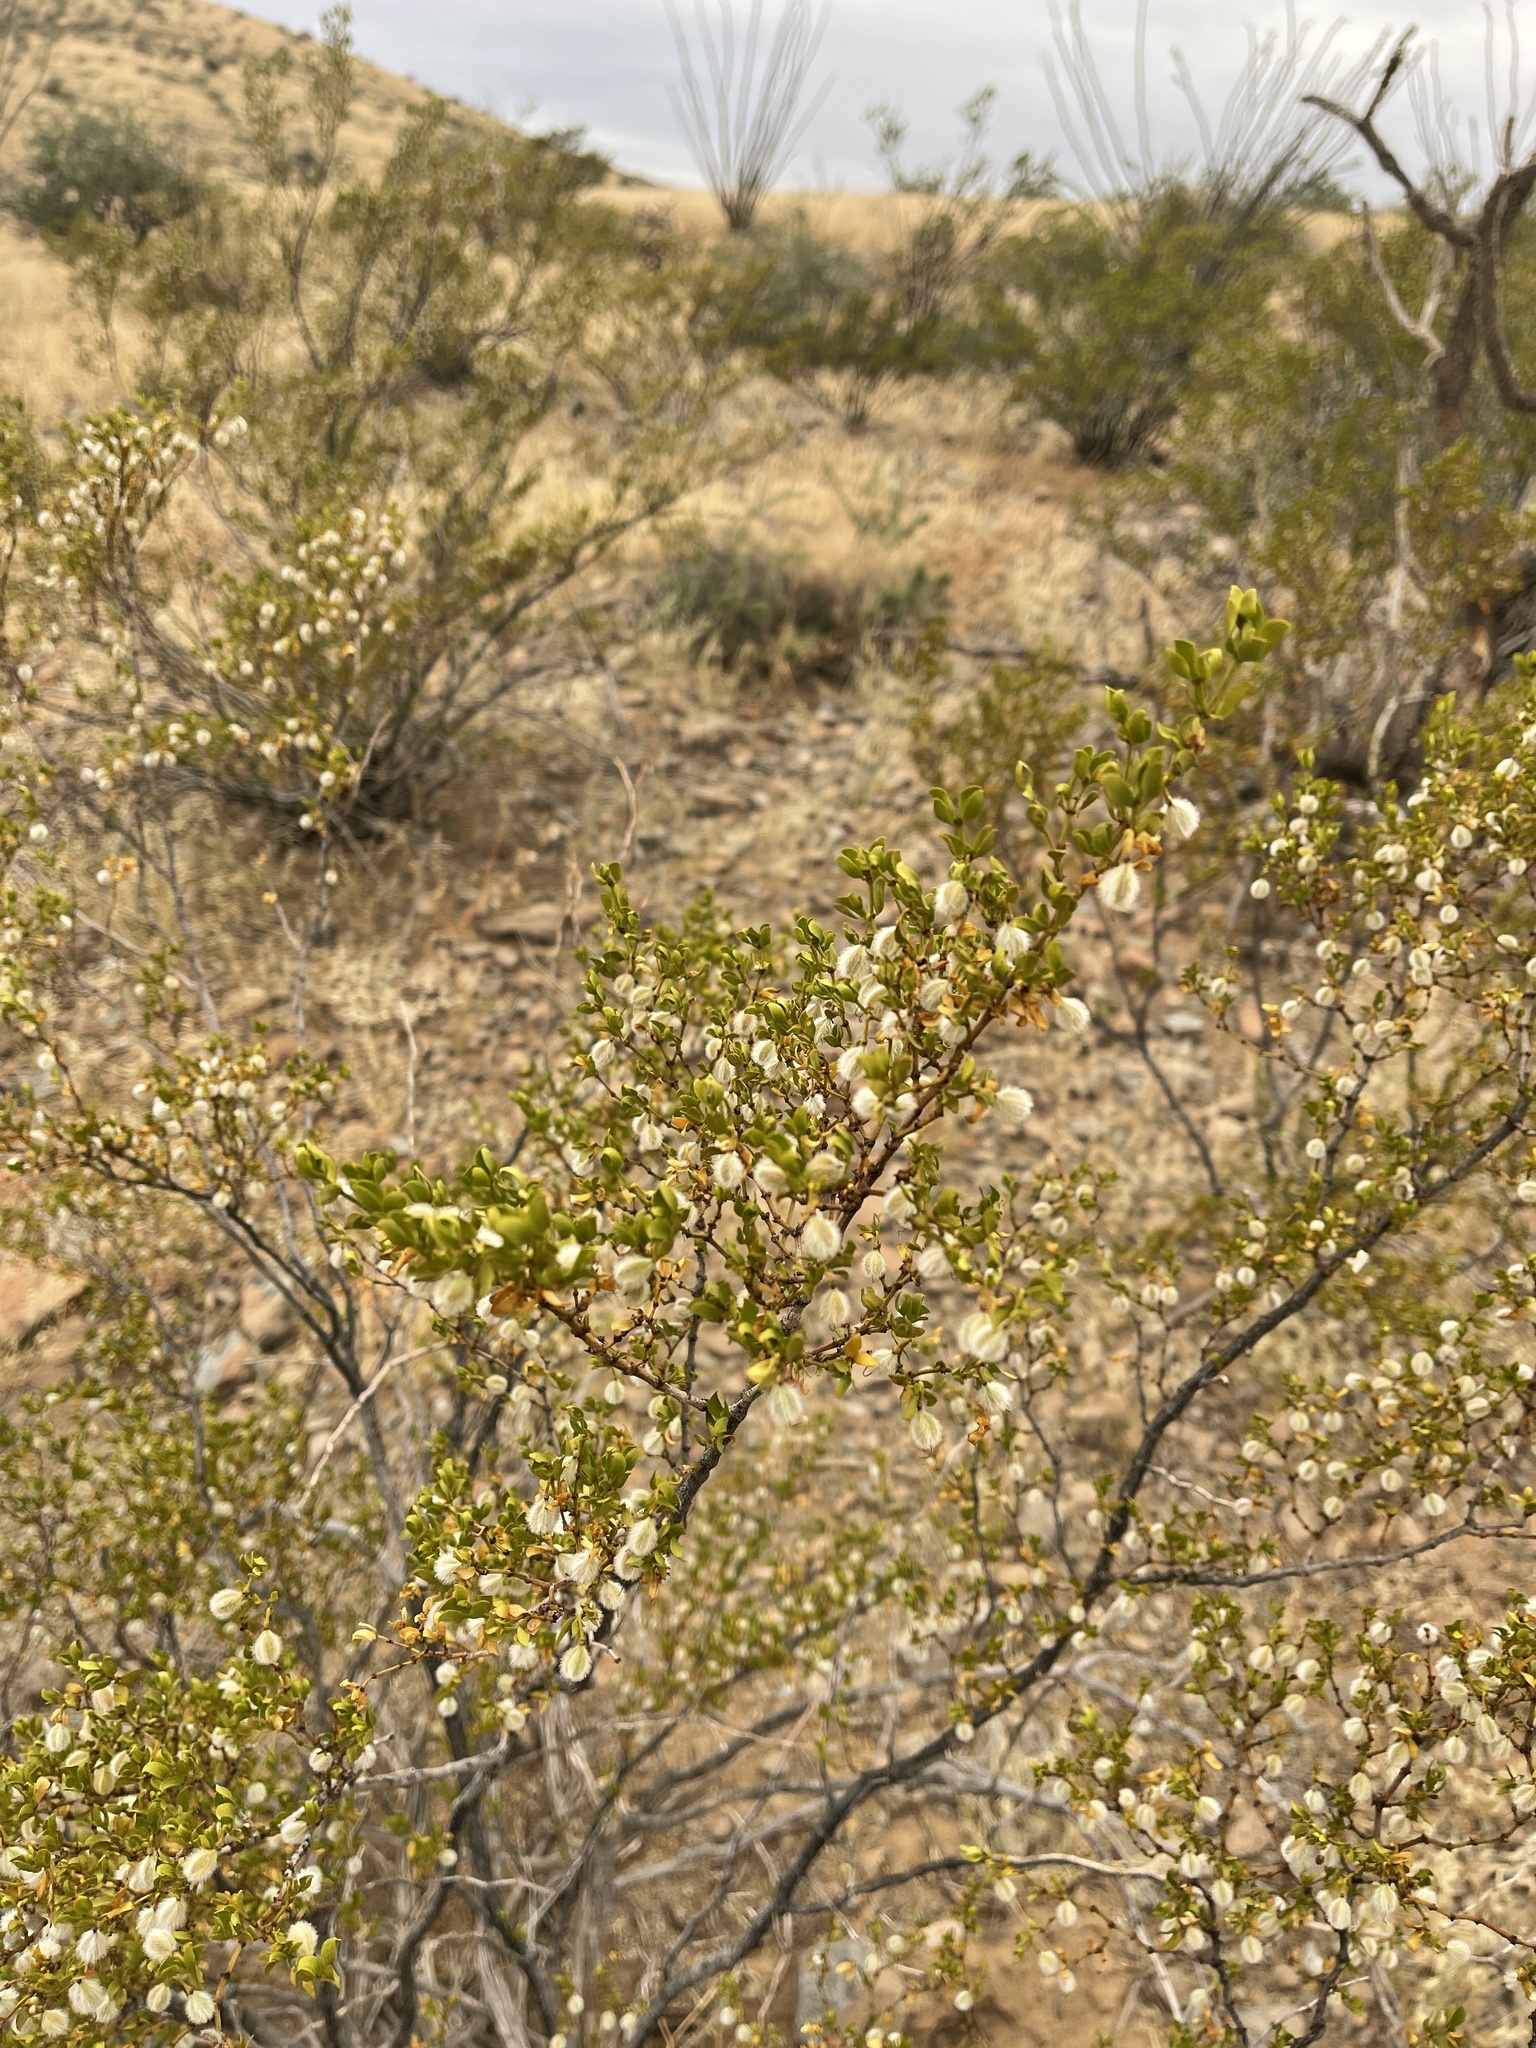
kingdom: Plantae
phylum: Tracheophyta
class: Magnoliopsida
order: Zygophyllales
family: Zygophyllaceae
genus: Larrea
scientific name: Larrea tridentata
